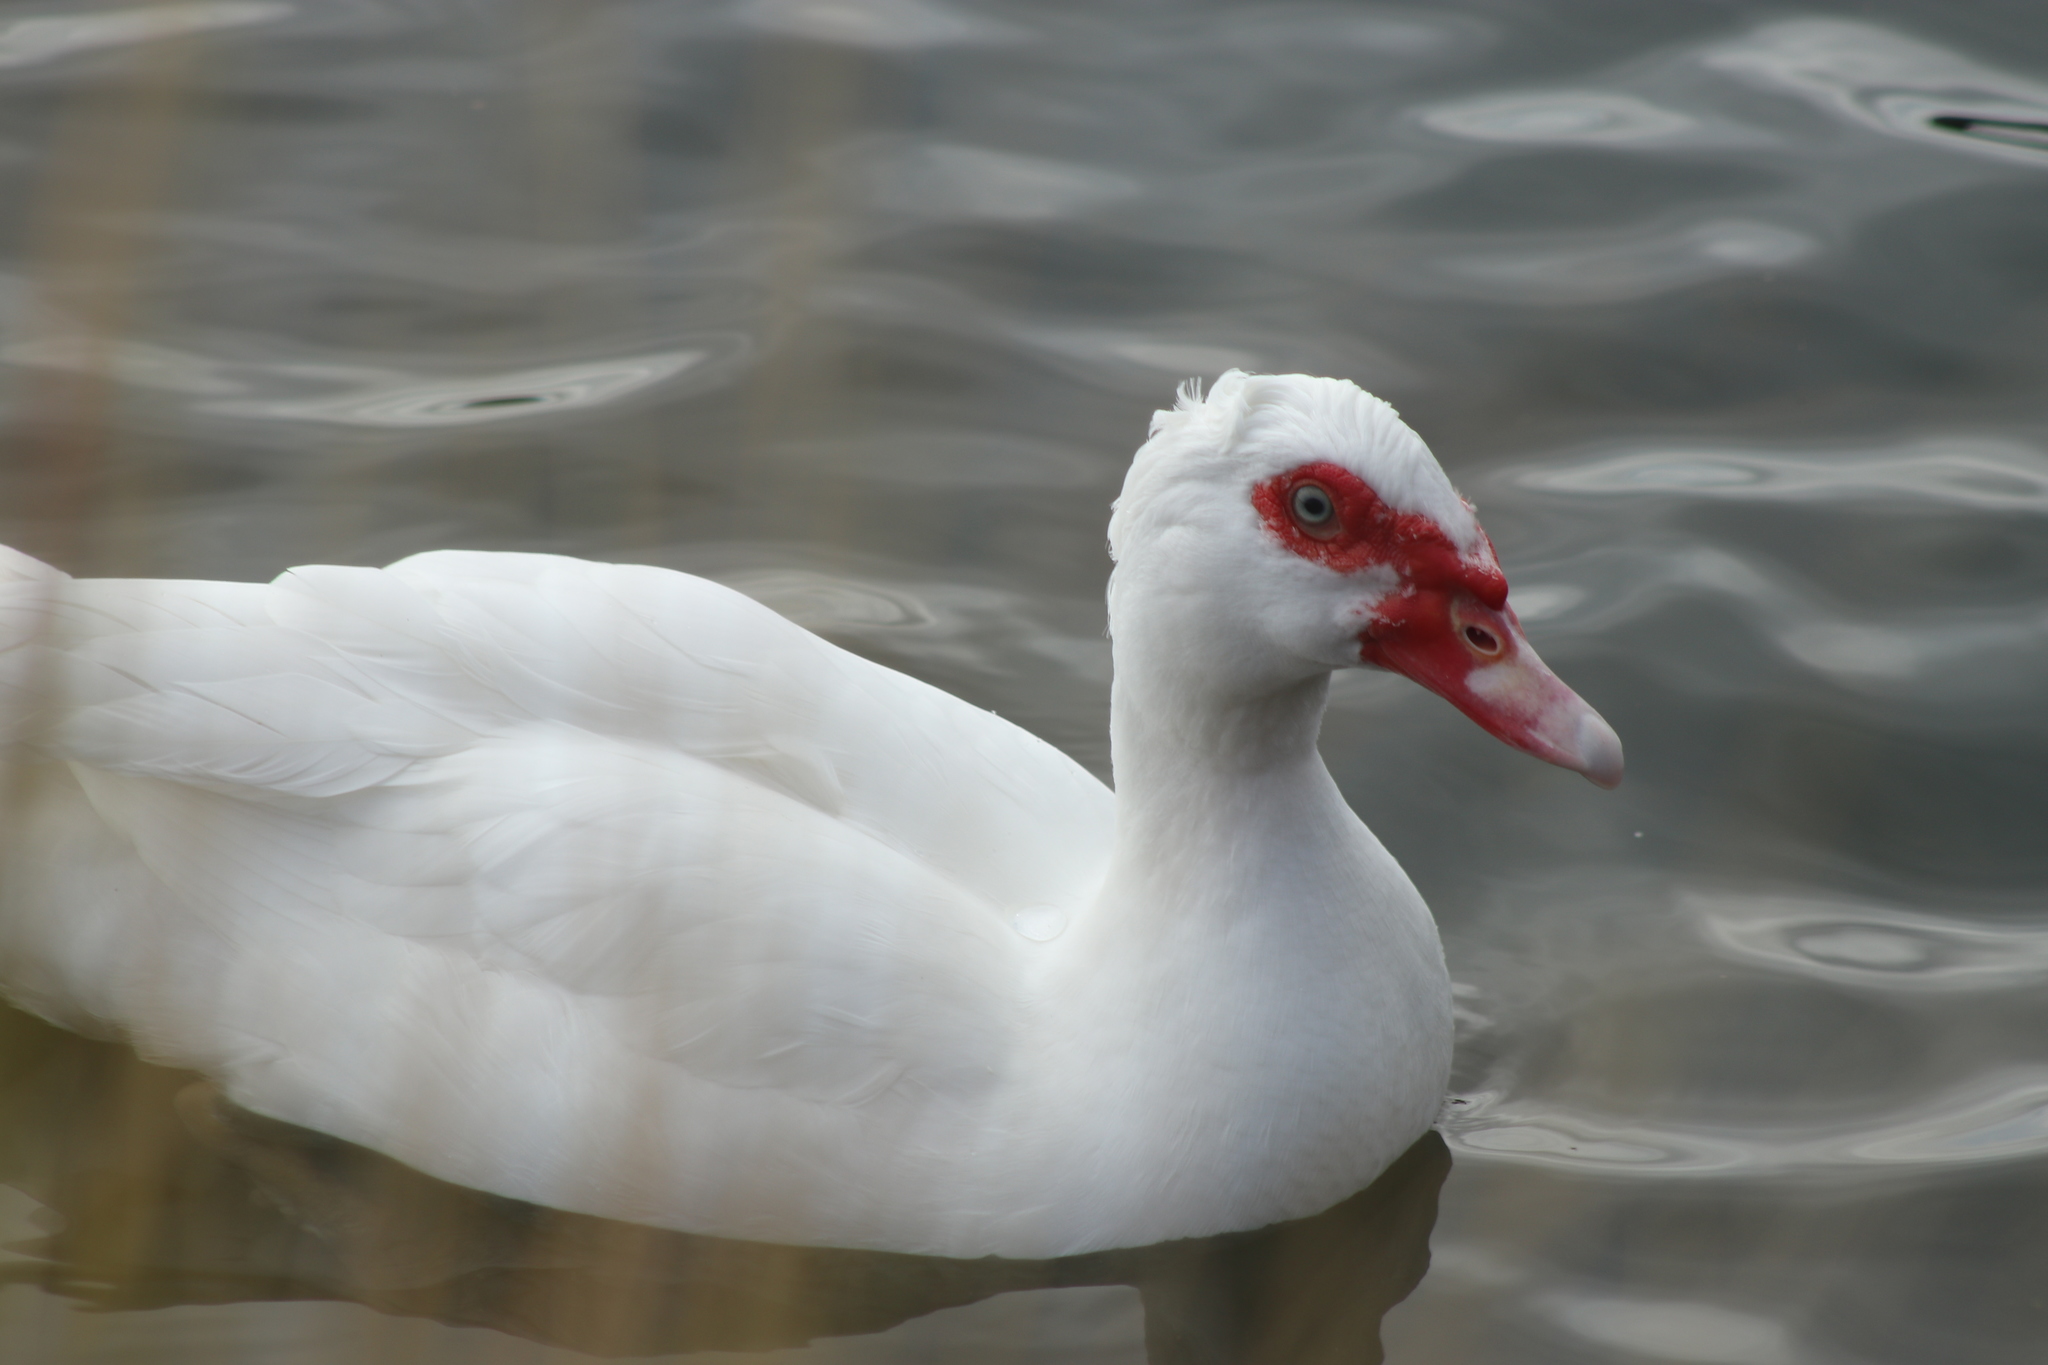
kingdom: Animalia
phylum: Chordata
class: Aves
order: Anseriformes
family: Anatidae
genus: Cairina
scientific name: Cairina moschata
